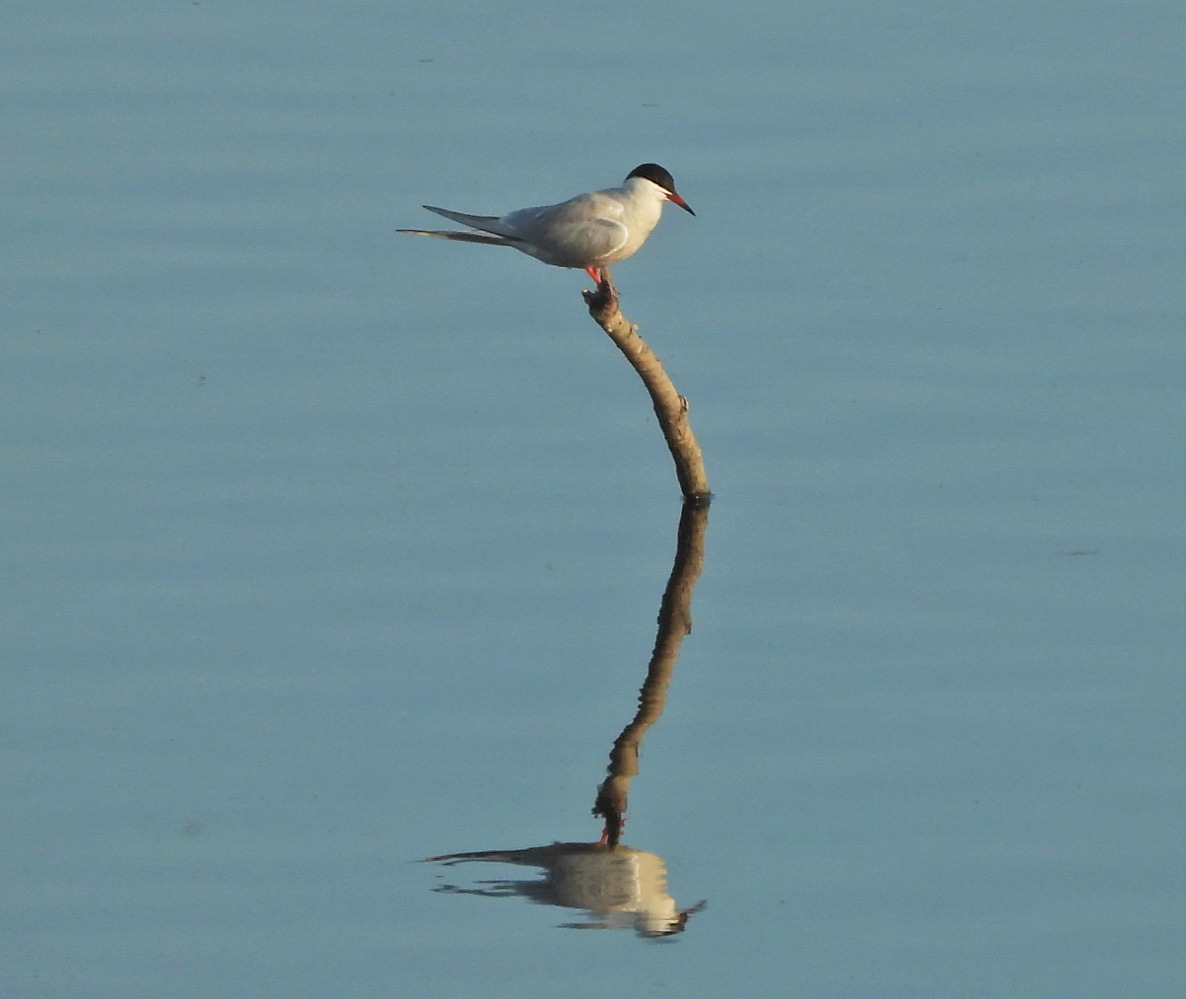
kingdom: Animalia
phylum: Chordata
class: Aves
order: Charadriiformes
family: Laridae
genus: Sterna
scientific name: Sterna hirundo
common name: Common tern
